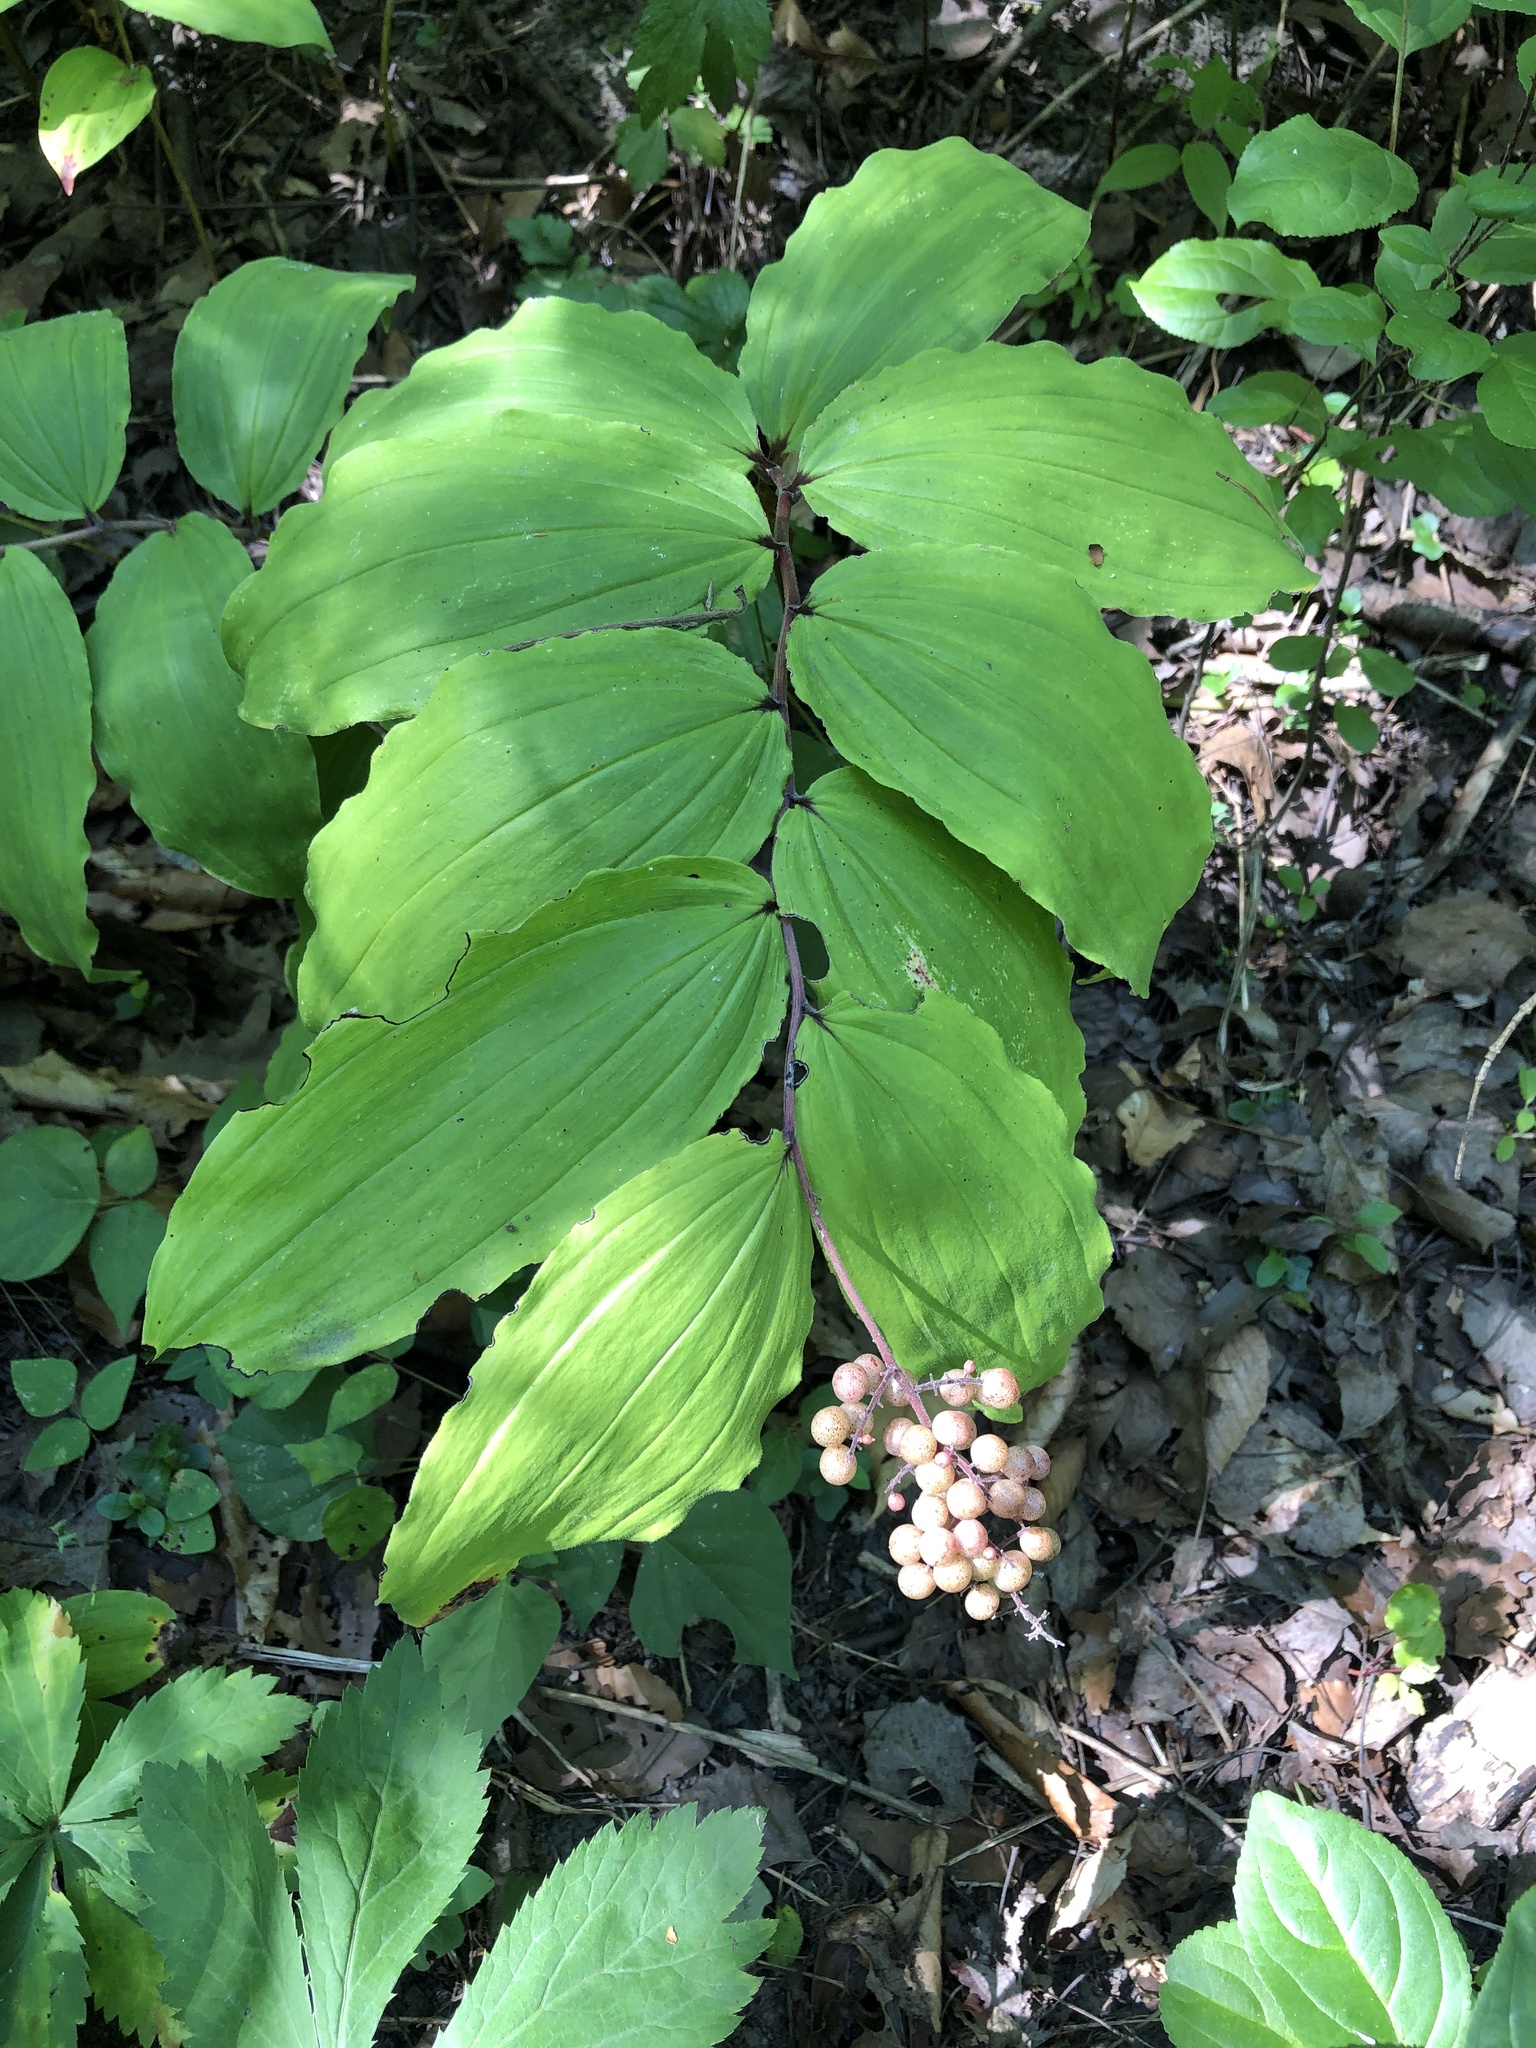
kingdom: Plantae
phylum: Tracheophyta
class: Liliopsida
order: Asparagales
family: Asparagaceae
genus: Maianthemum
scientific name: Maianthemum racemosum
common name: False spikenard
